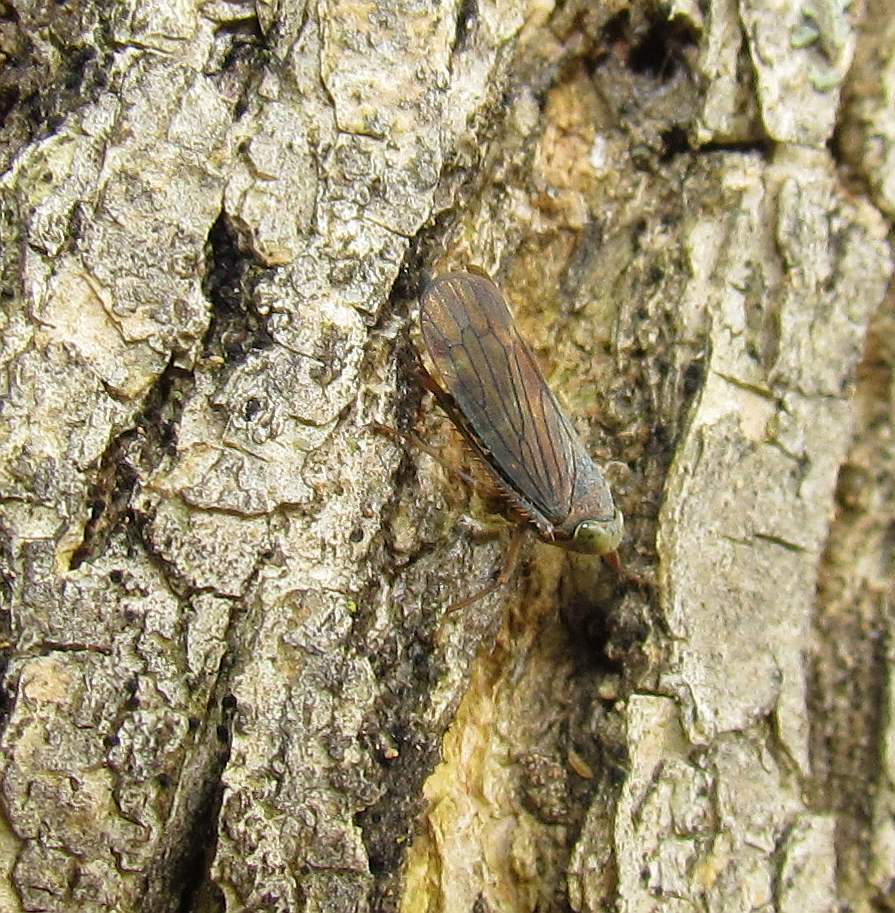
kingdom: Animalia
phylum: Arthropoda
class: Insecta
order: Hemiptera
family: Cicadellidae
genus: Jikradia
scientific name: Jikradia olitoria
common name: Coppery leafhopper
